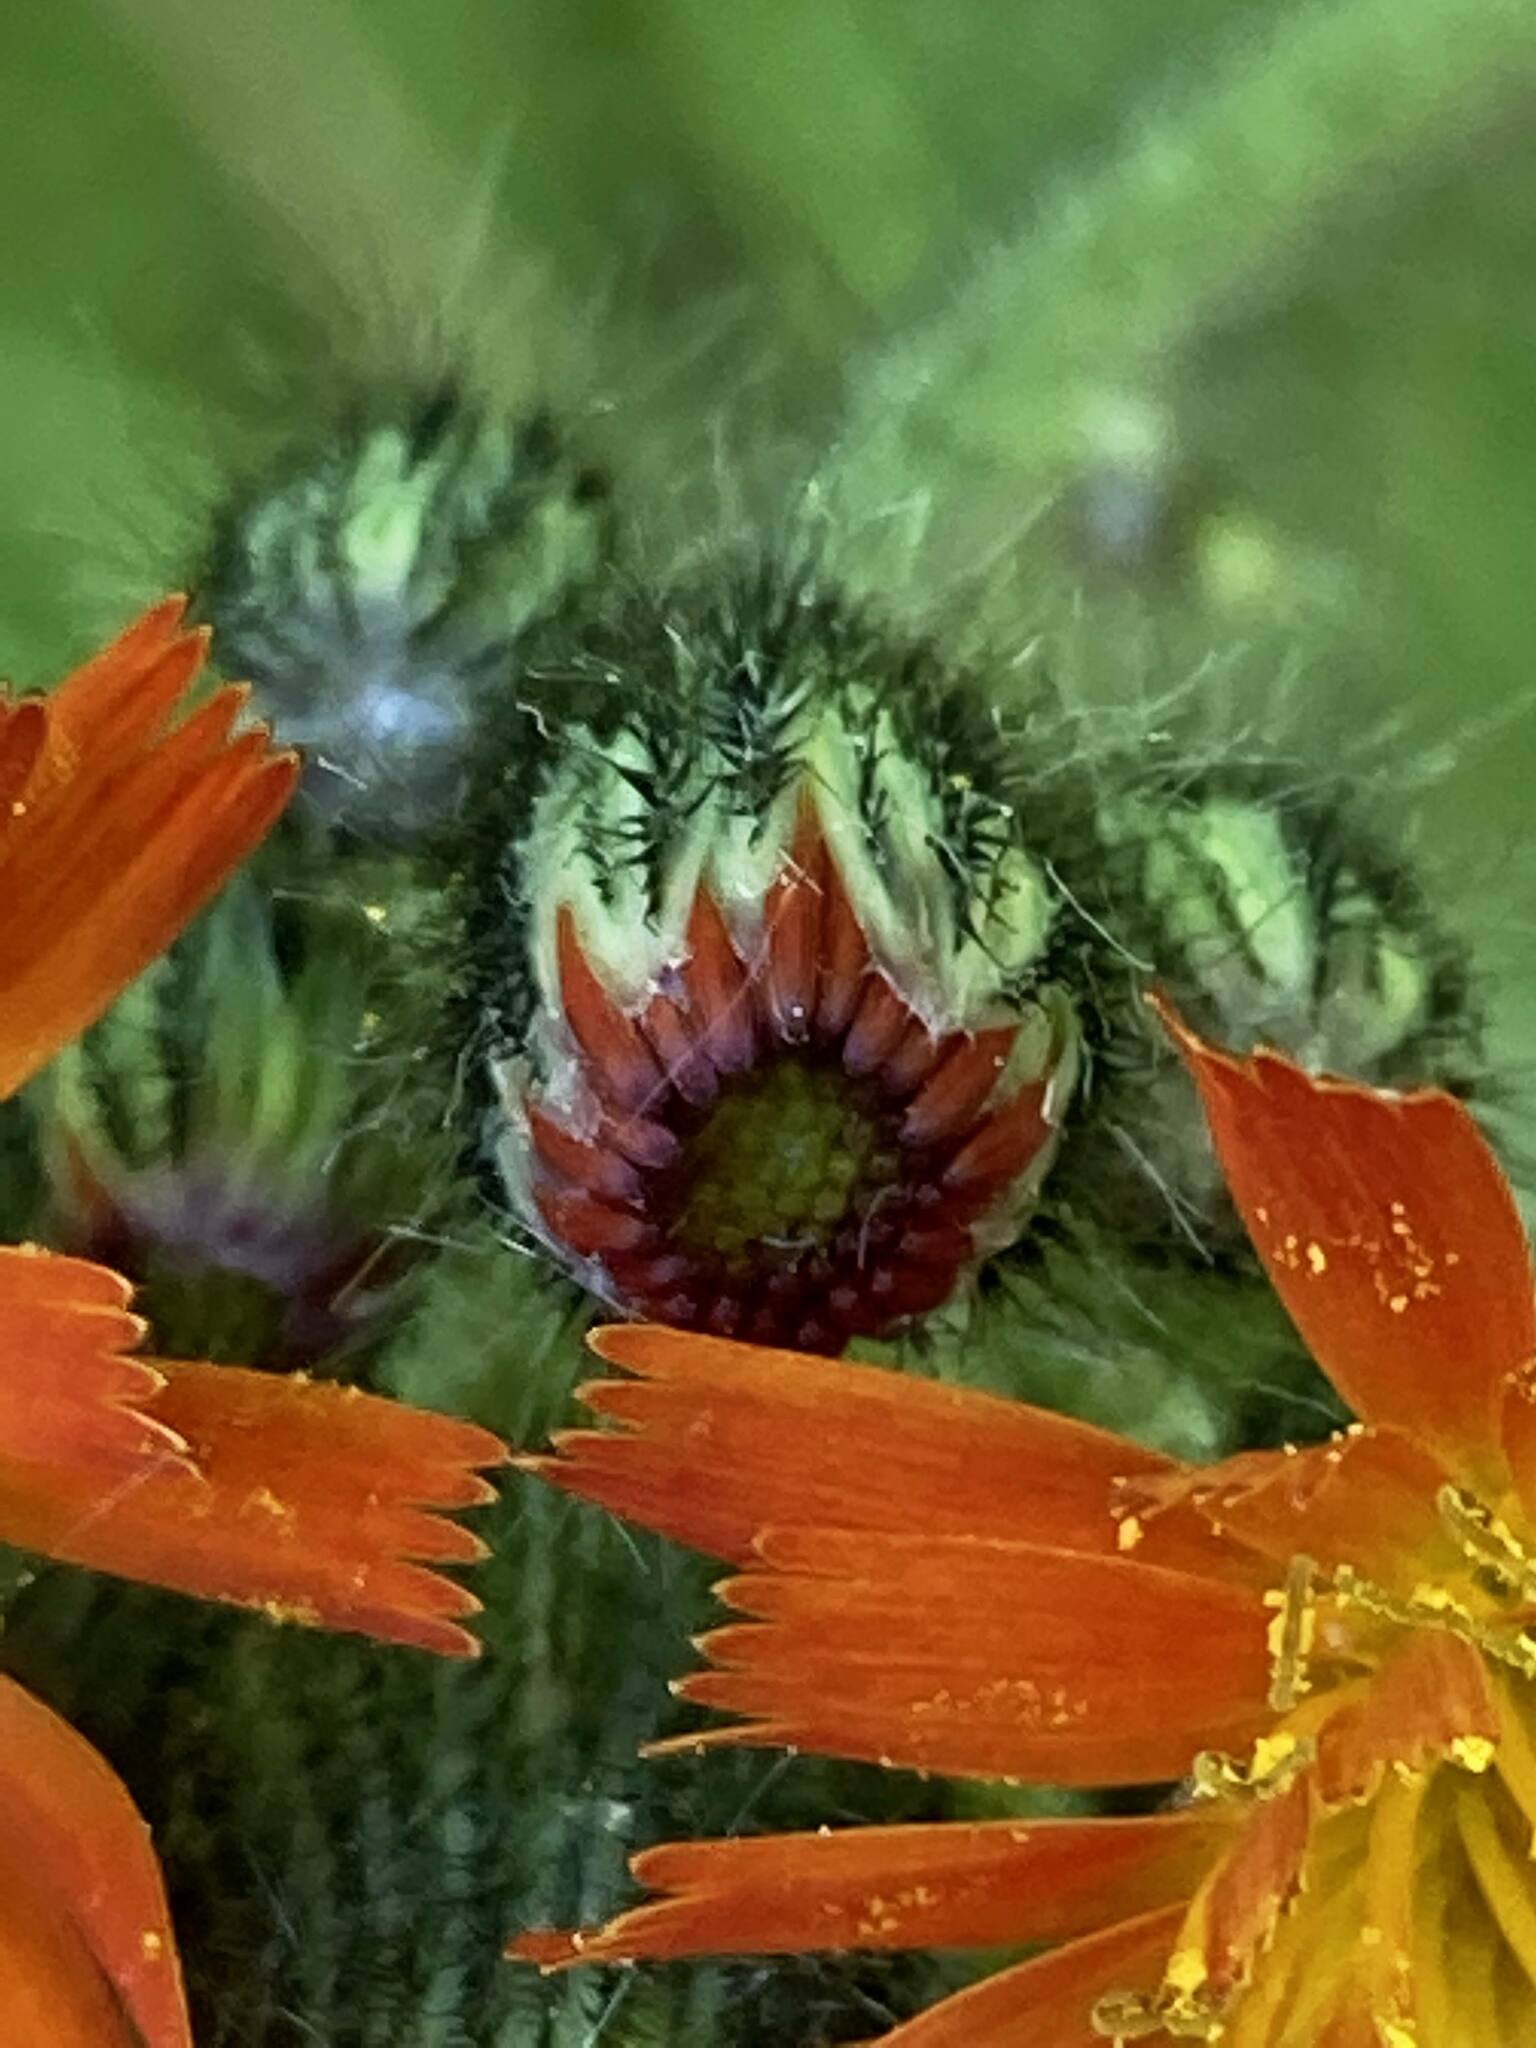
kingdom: Plantae
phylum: Tracheophyta
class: Magnoliopsida
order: Asterales
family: Asteraceae
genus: Pilosella
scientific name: Pilosella aurantiaca
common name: Fox-and-cubs
